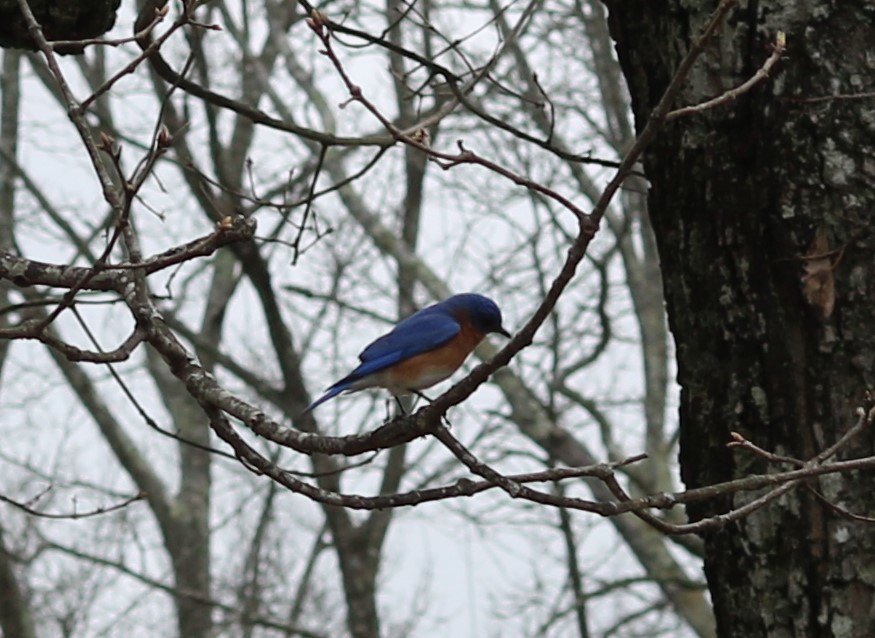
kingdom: Animalia
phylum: Chordata
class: Aves
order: Passeriformes
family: Turdidae
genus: Sialia
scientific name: Sialia sialis
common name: Eastern bluebird
